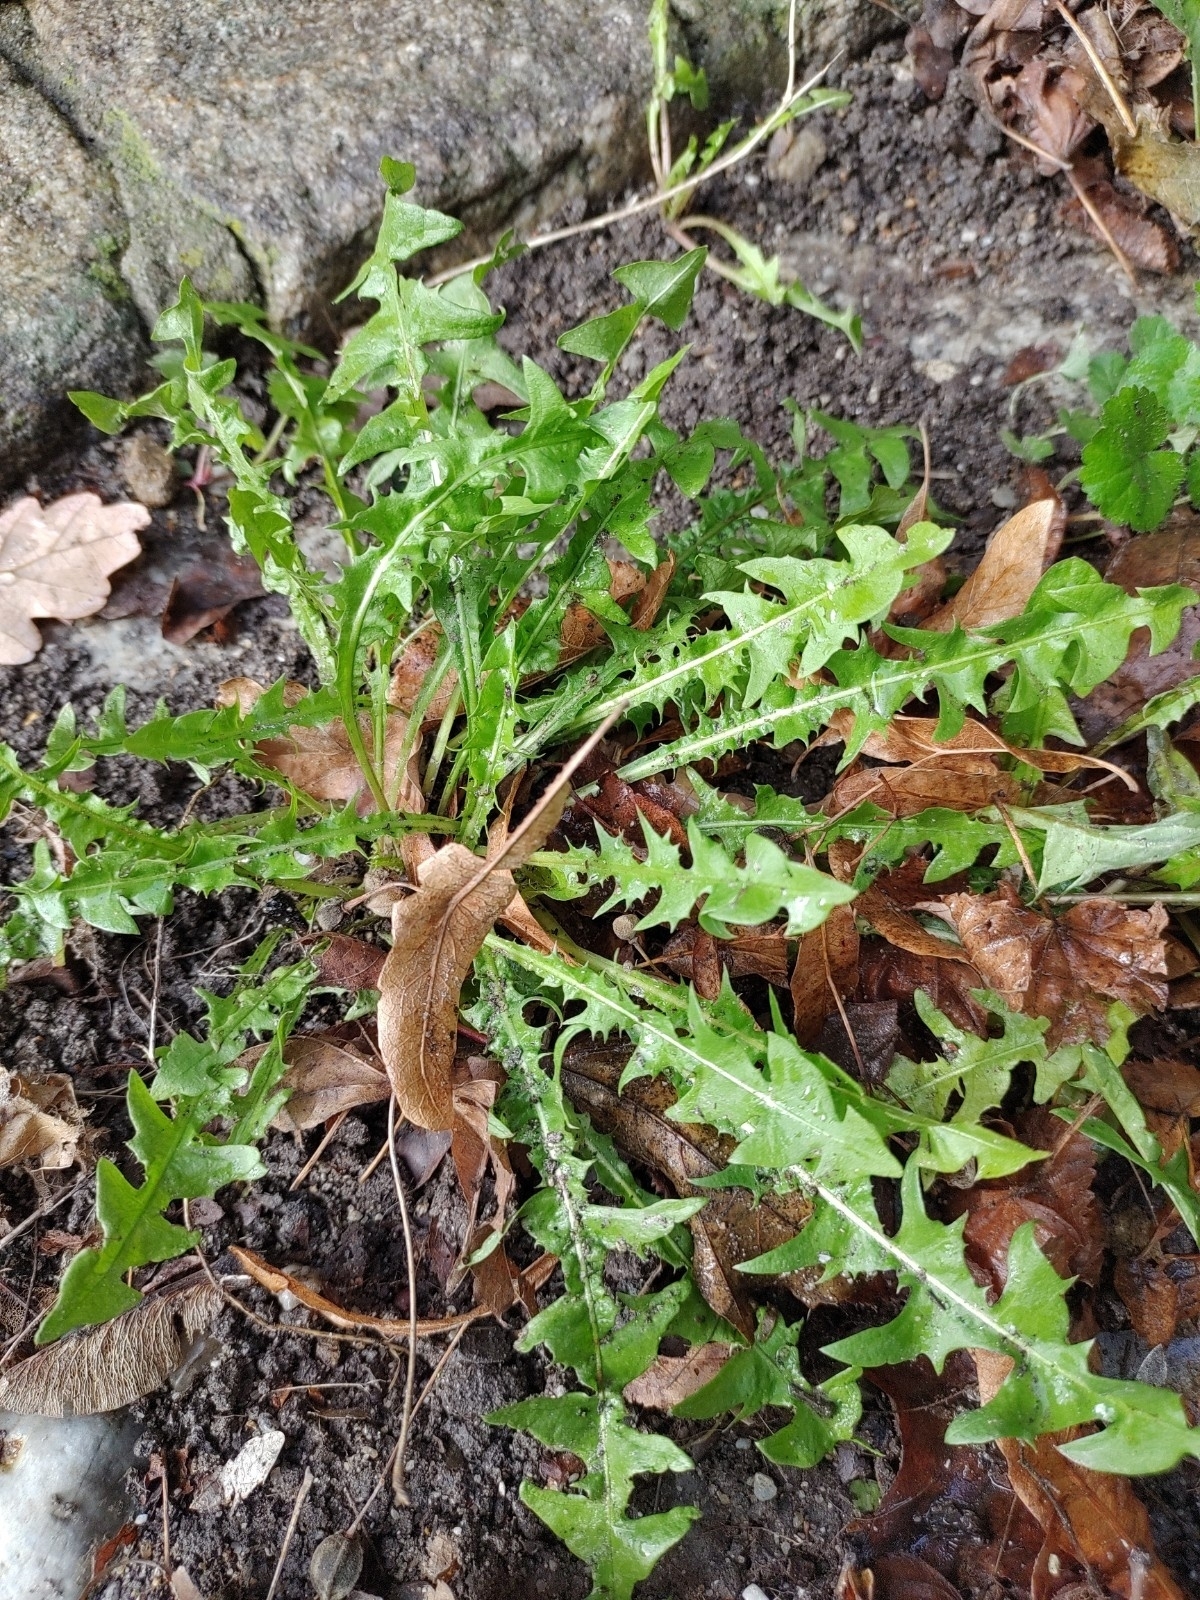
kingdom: Plantae
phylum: Tracheophyta
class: Magnoliopsida
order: Asterales
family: Asteraceae
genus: Taraxacum
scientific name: Taraxacum
